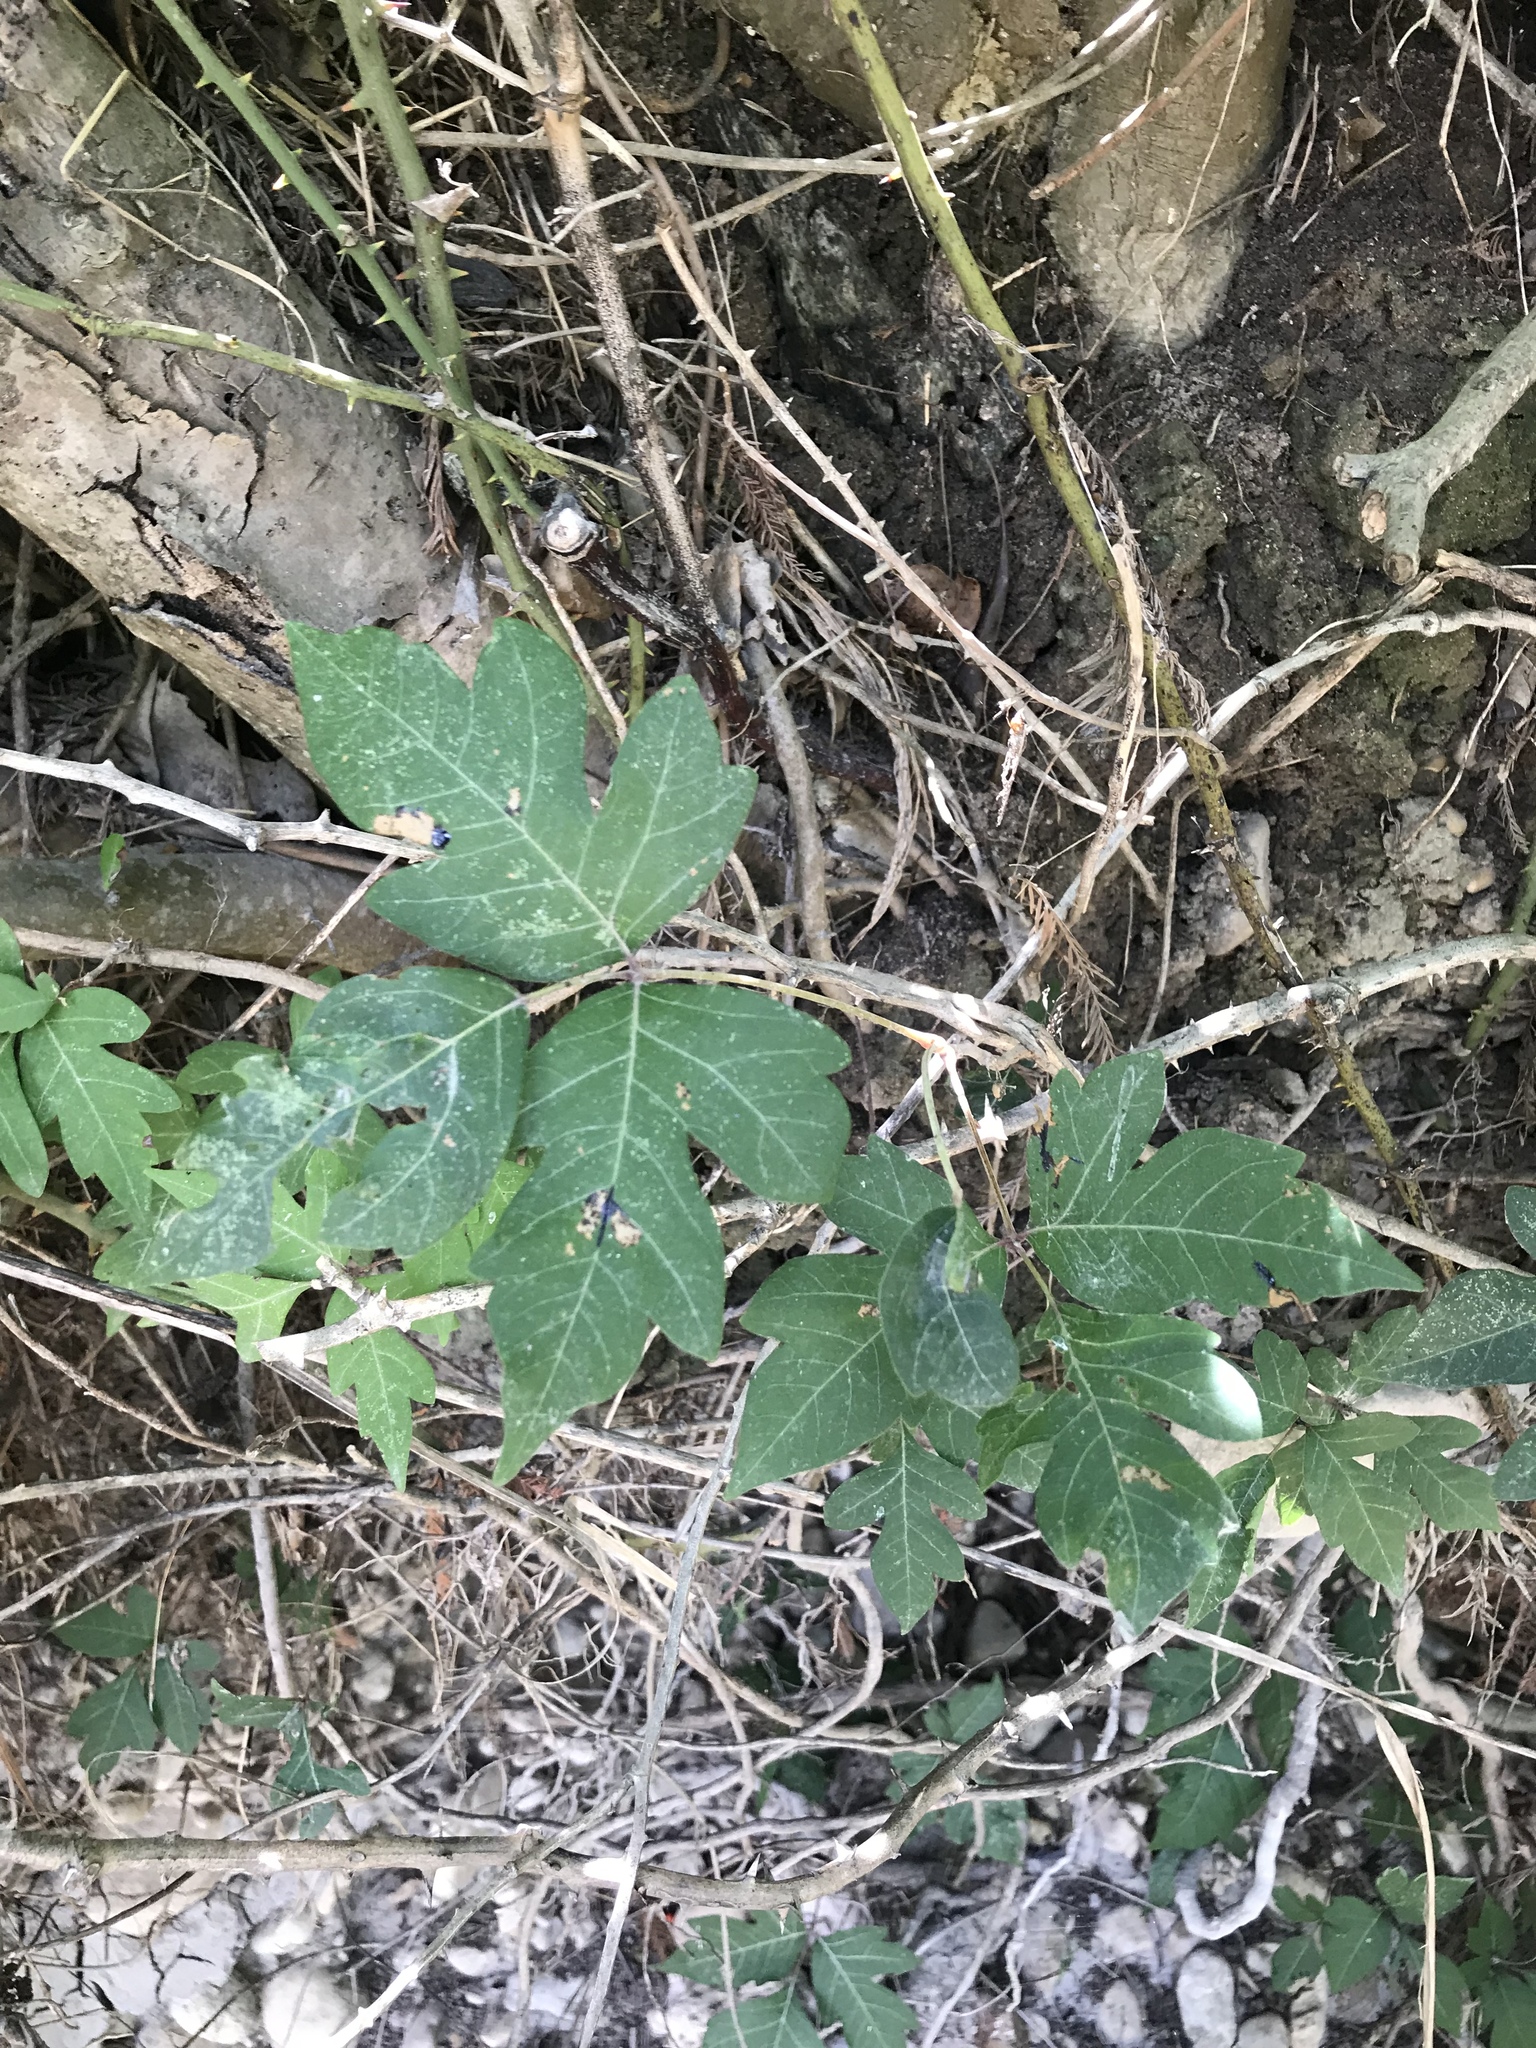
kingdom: Plantae
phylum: Tracheophyta
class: Magnoliopsida
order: Sapindales
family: Anacardiaceae
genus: Toxicodendron
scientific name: Toxicodendron radicans
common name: Poison ivy
